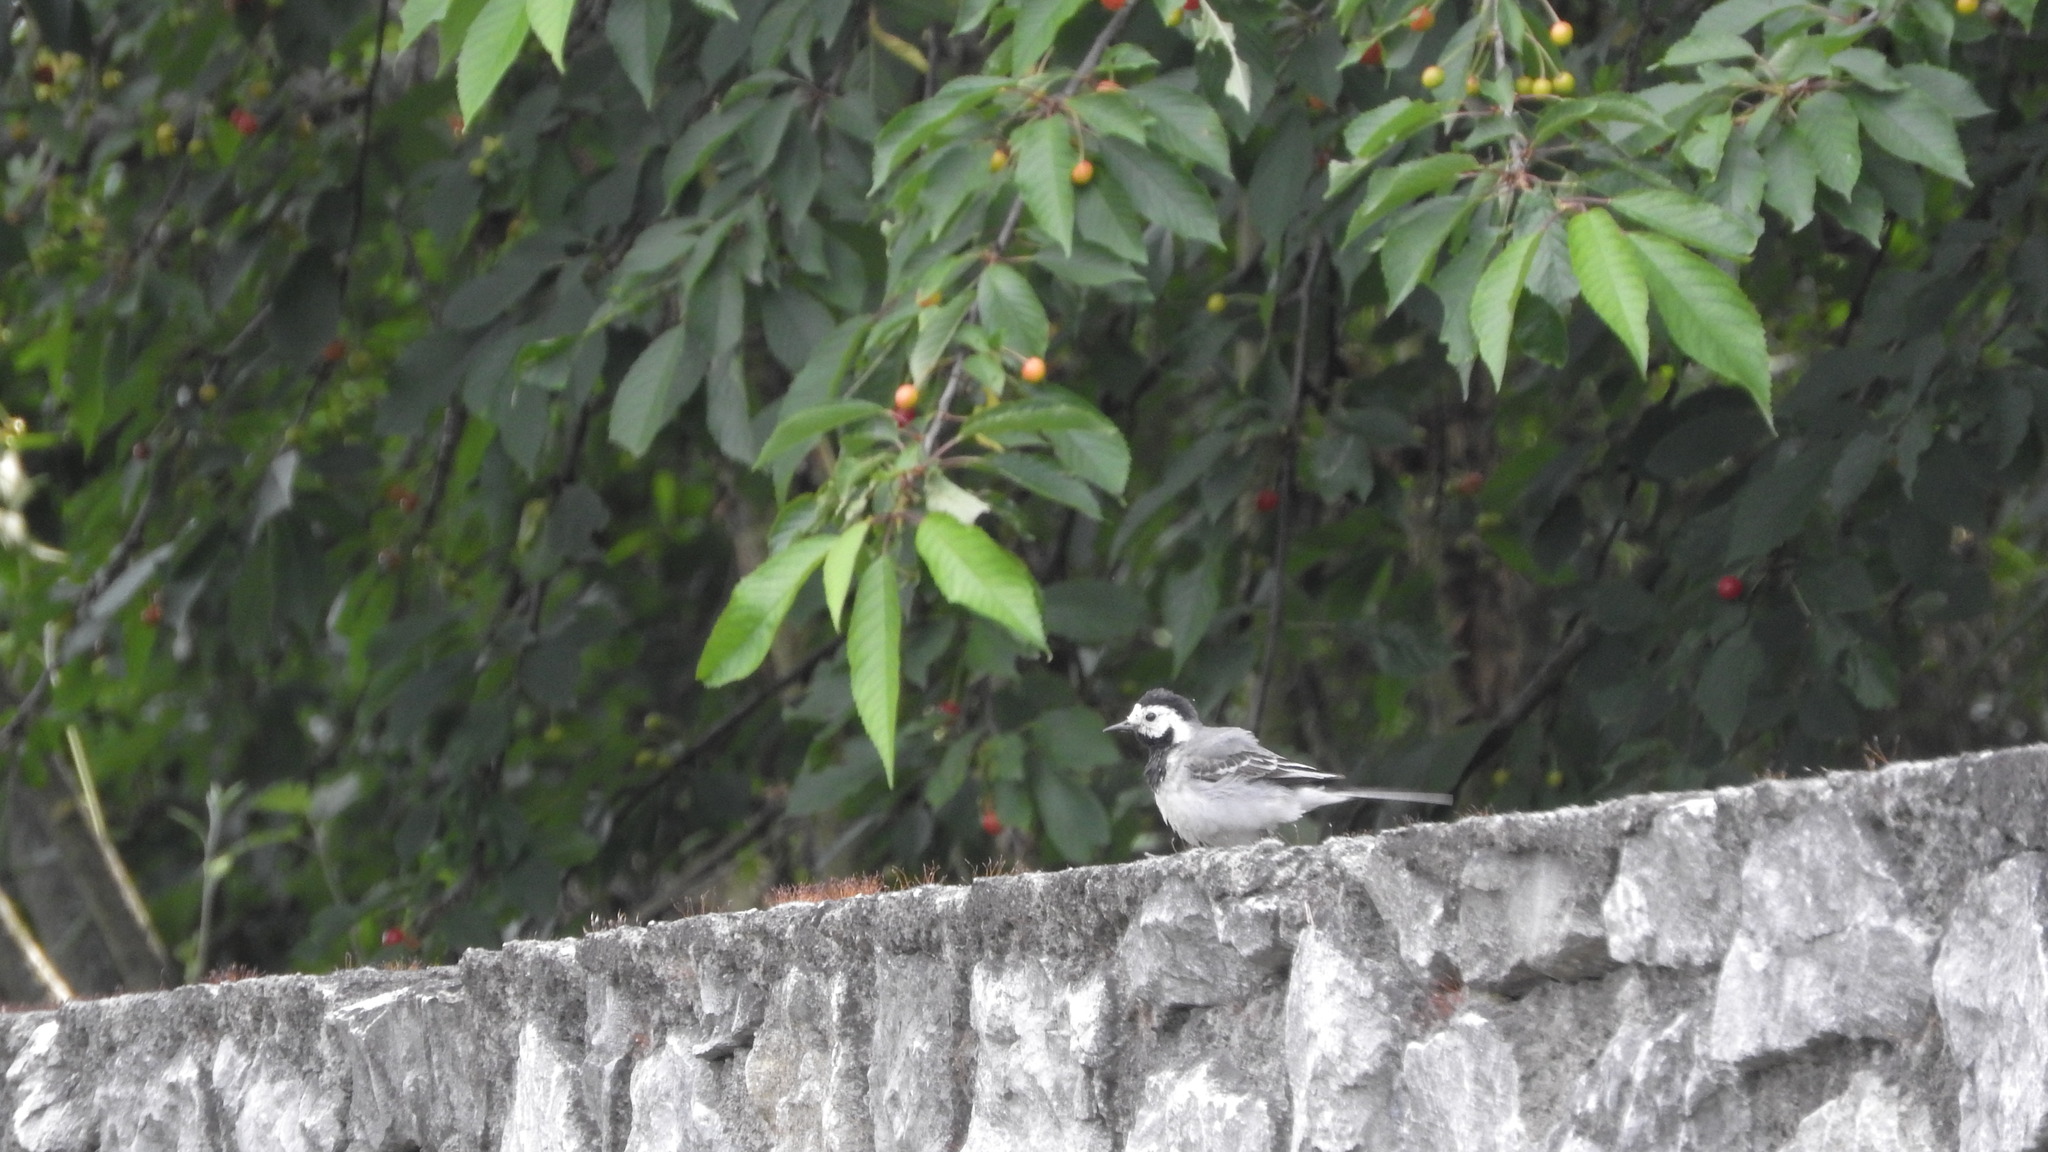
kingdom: Animalia
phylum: Chordata
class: Aves
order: Passeriformes
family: Motacillidae
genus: Motacilla
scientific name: Motacilla alba
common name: White wagtail
